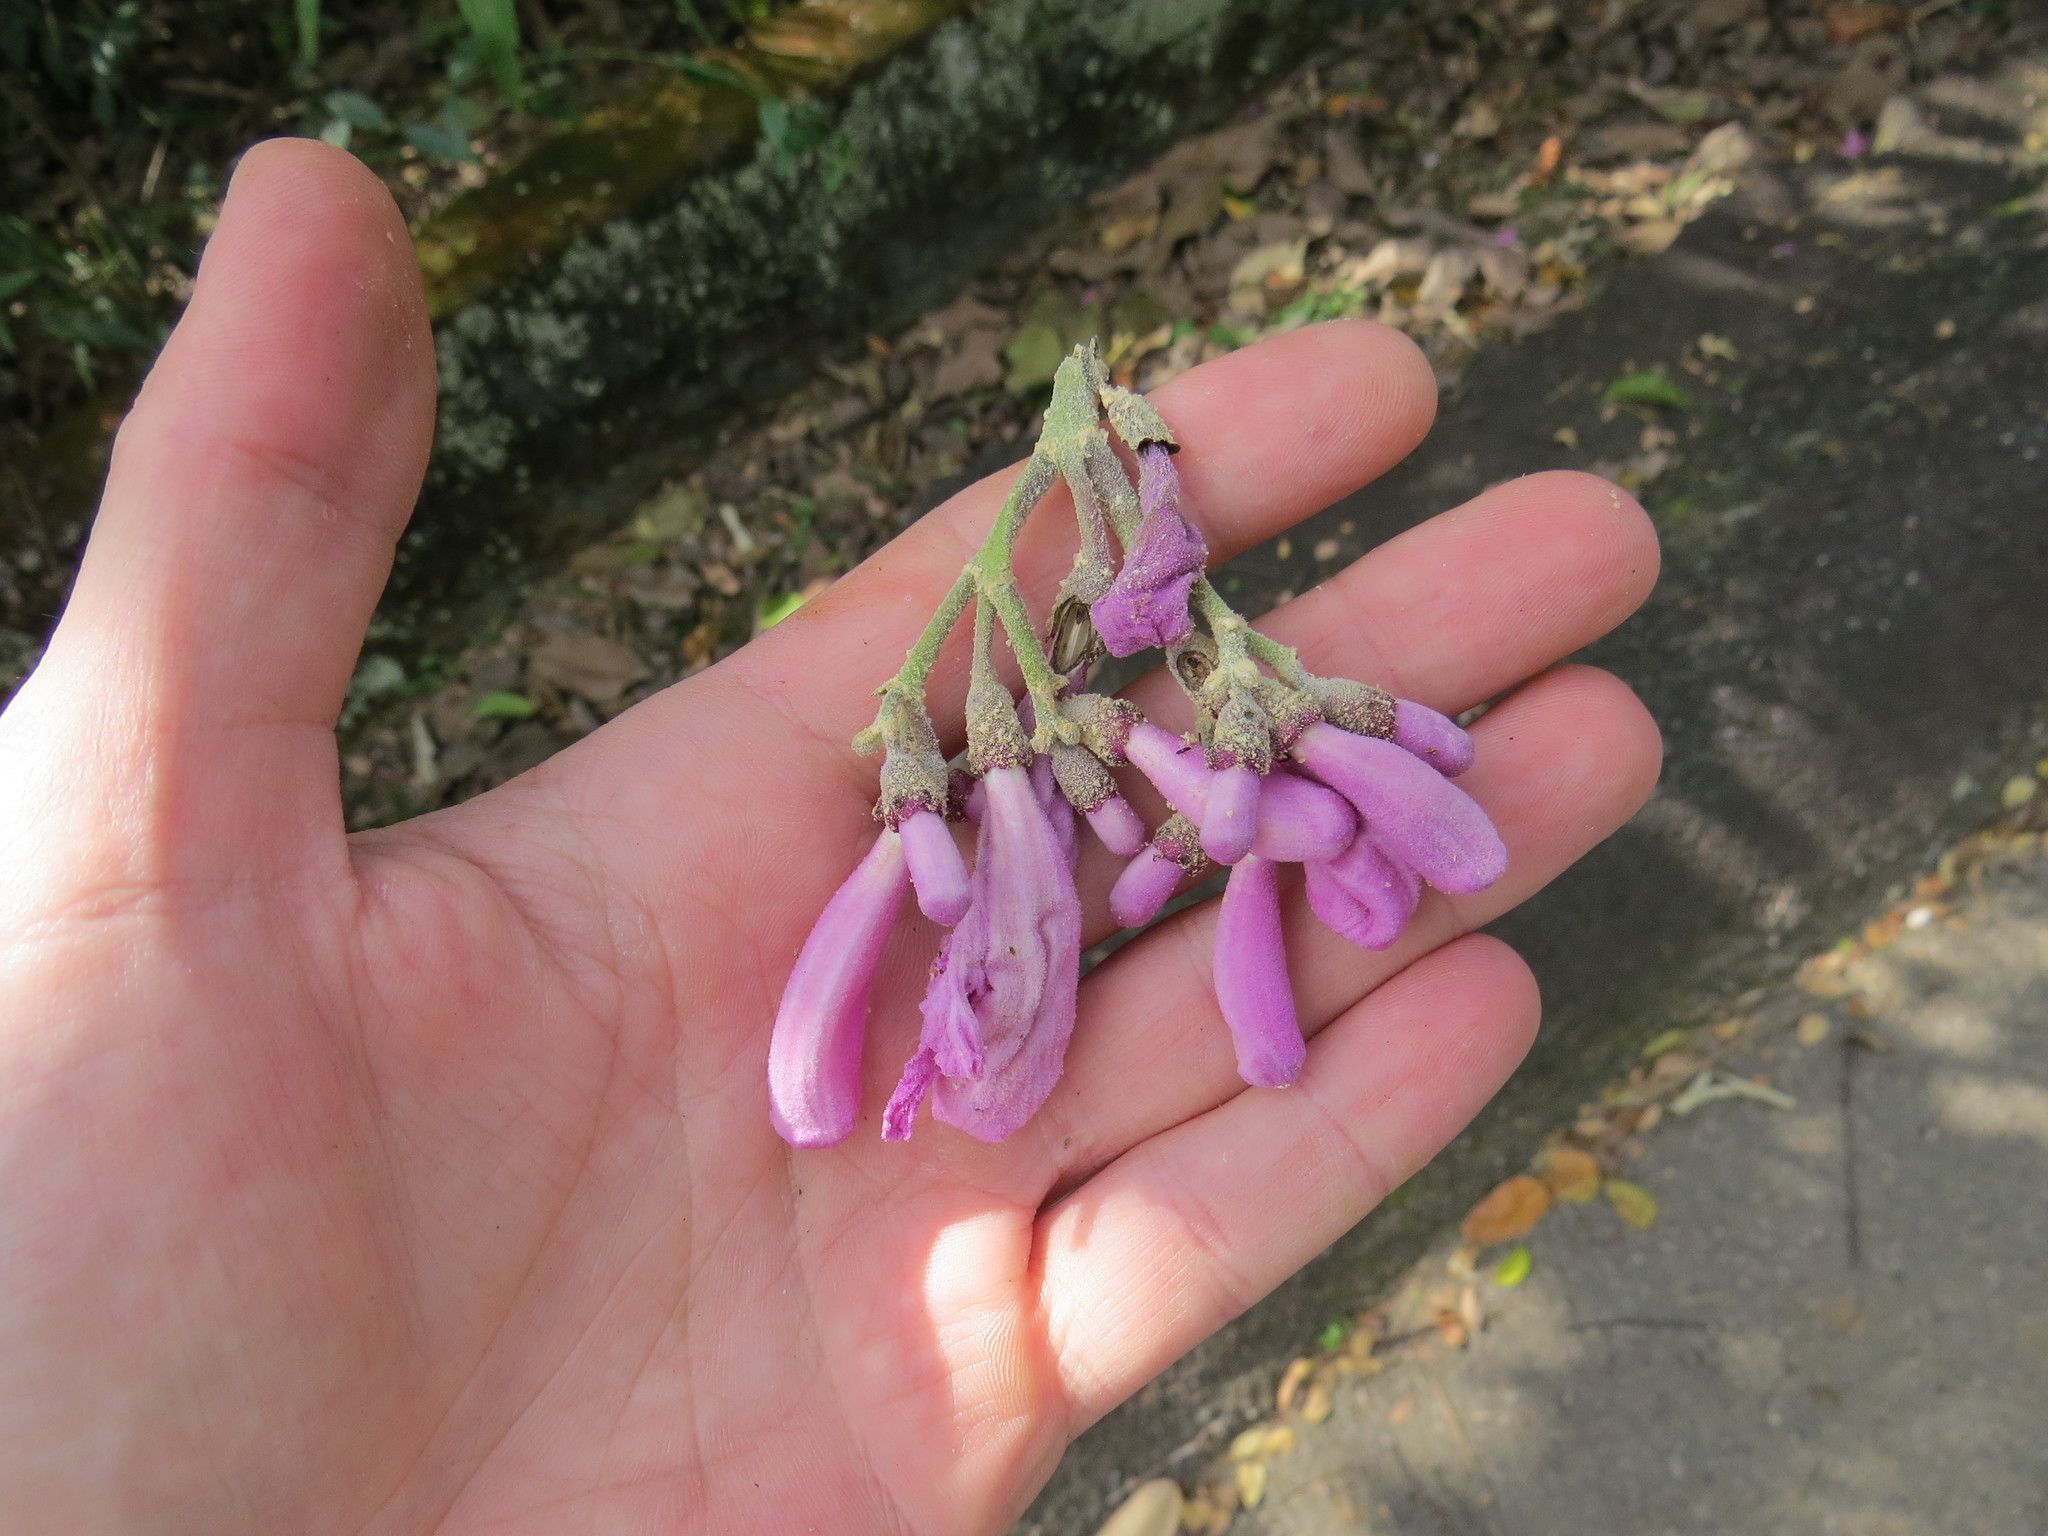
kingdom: Plantae
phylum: Tracheophyta
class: Magnoliopsida
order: Lamiales
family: Bignoniaceae
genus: Handroanthus
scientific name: Handroanthus impetiginosum
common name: Pink trumpet tree
